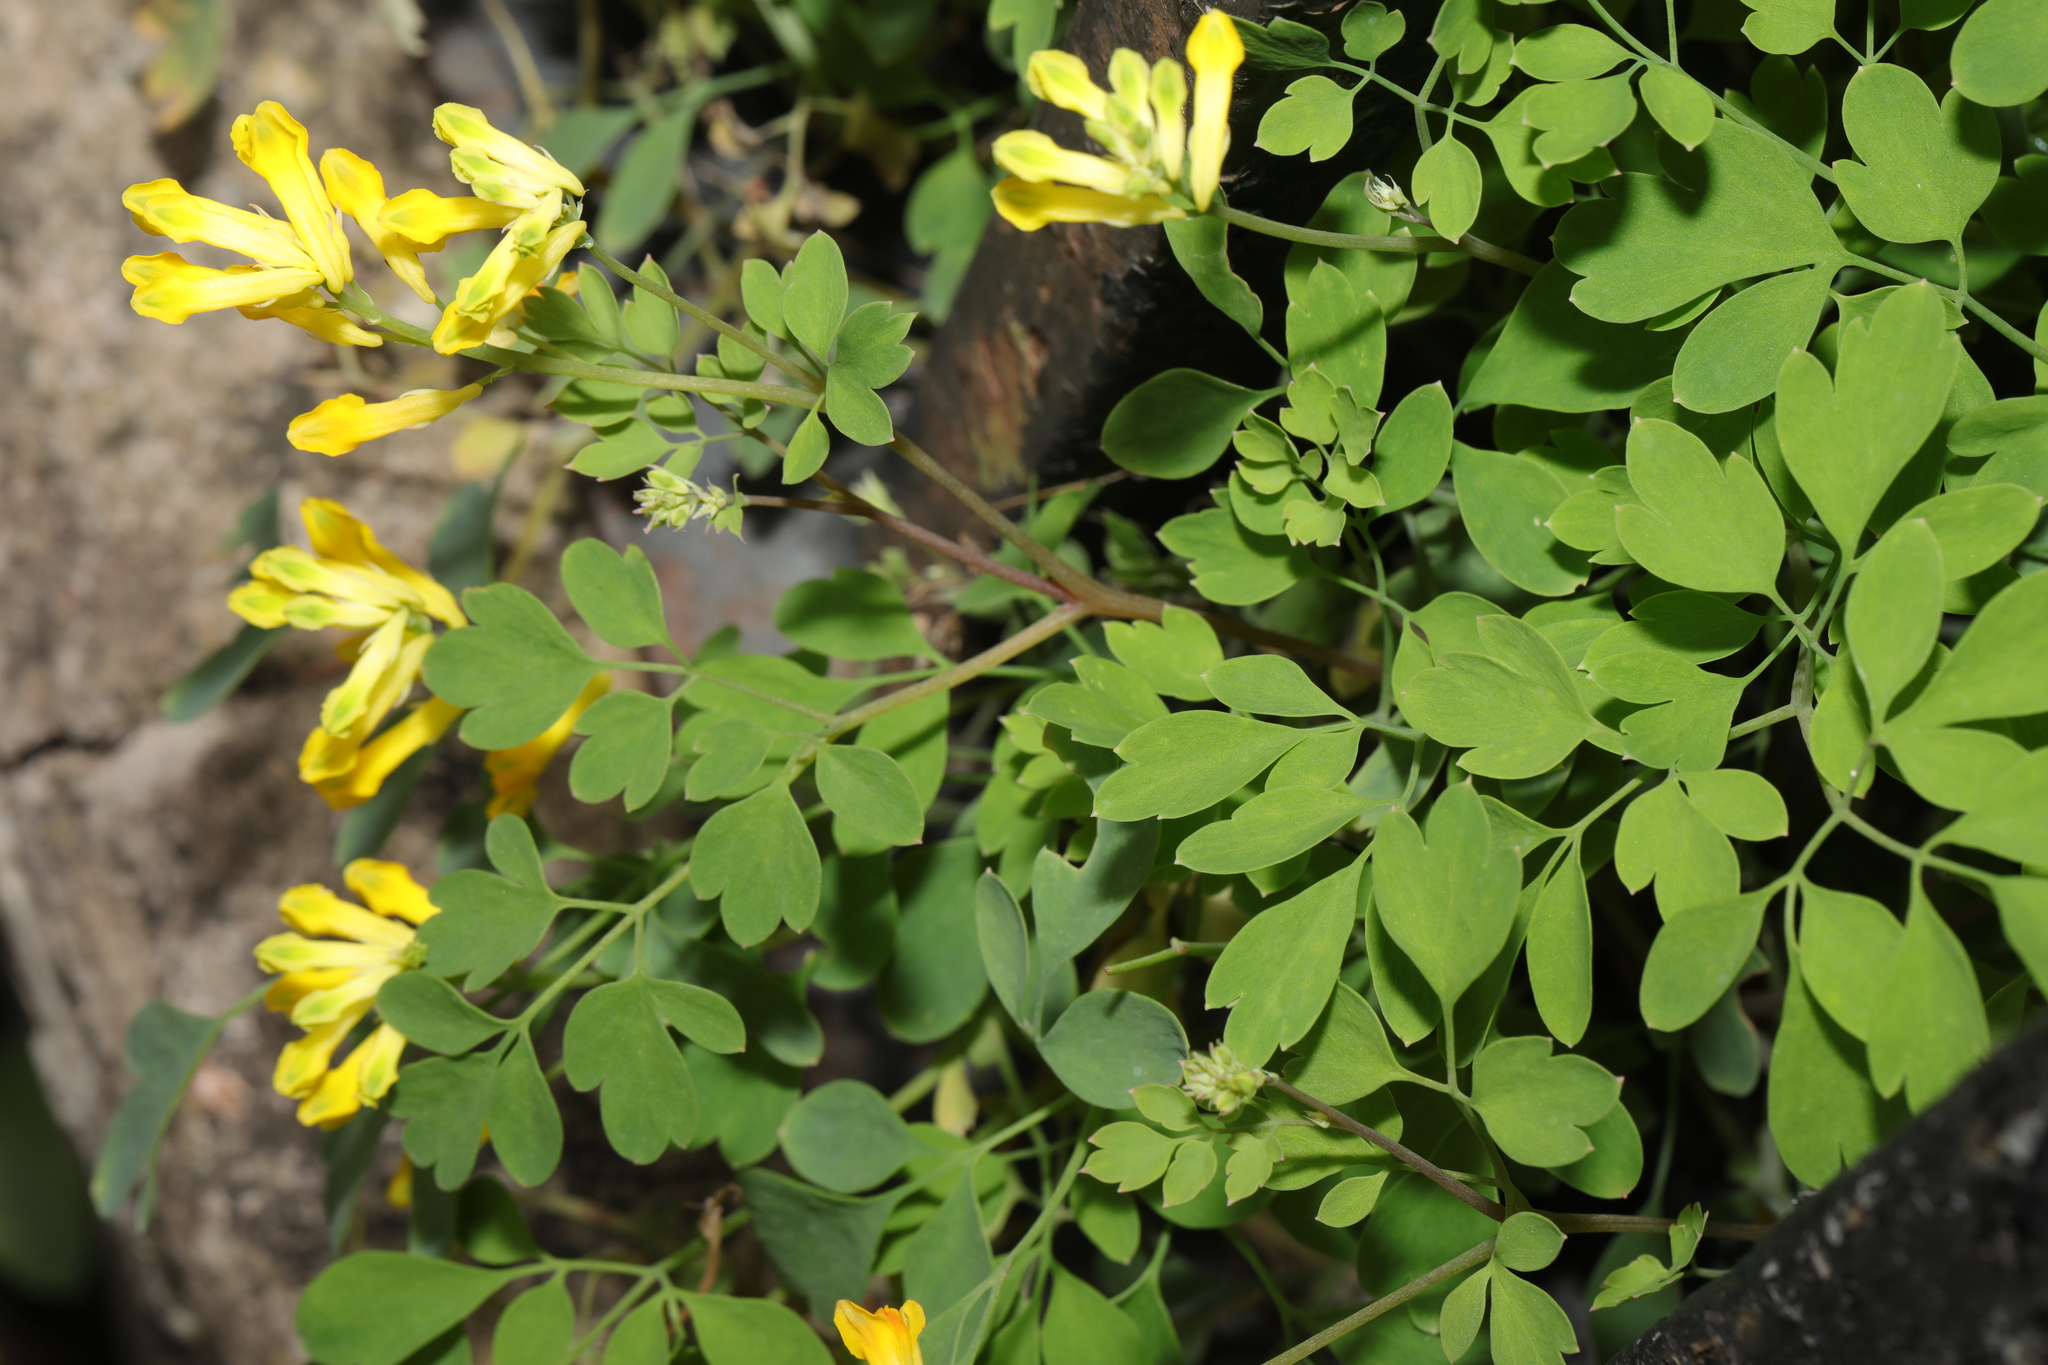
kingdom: Plantae
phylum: Tracheophyta
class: Magnoliopsida
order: Ranunculales
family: Papaveraceae
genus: Pseudofumaria
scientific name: Pseudofumaria lutea
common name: Yellow corydalis
